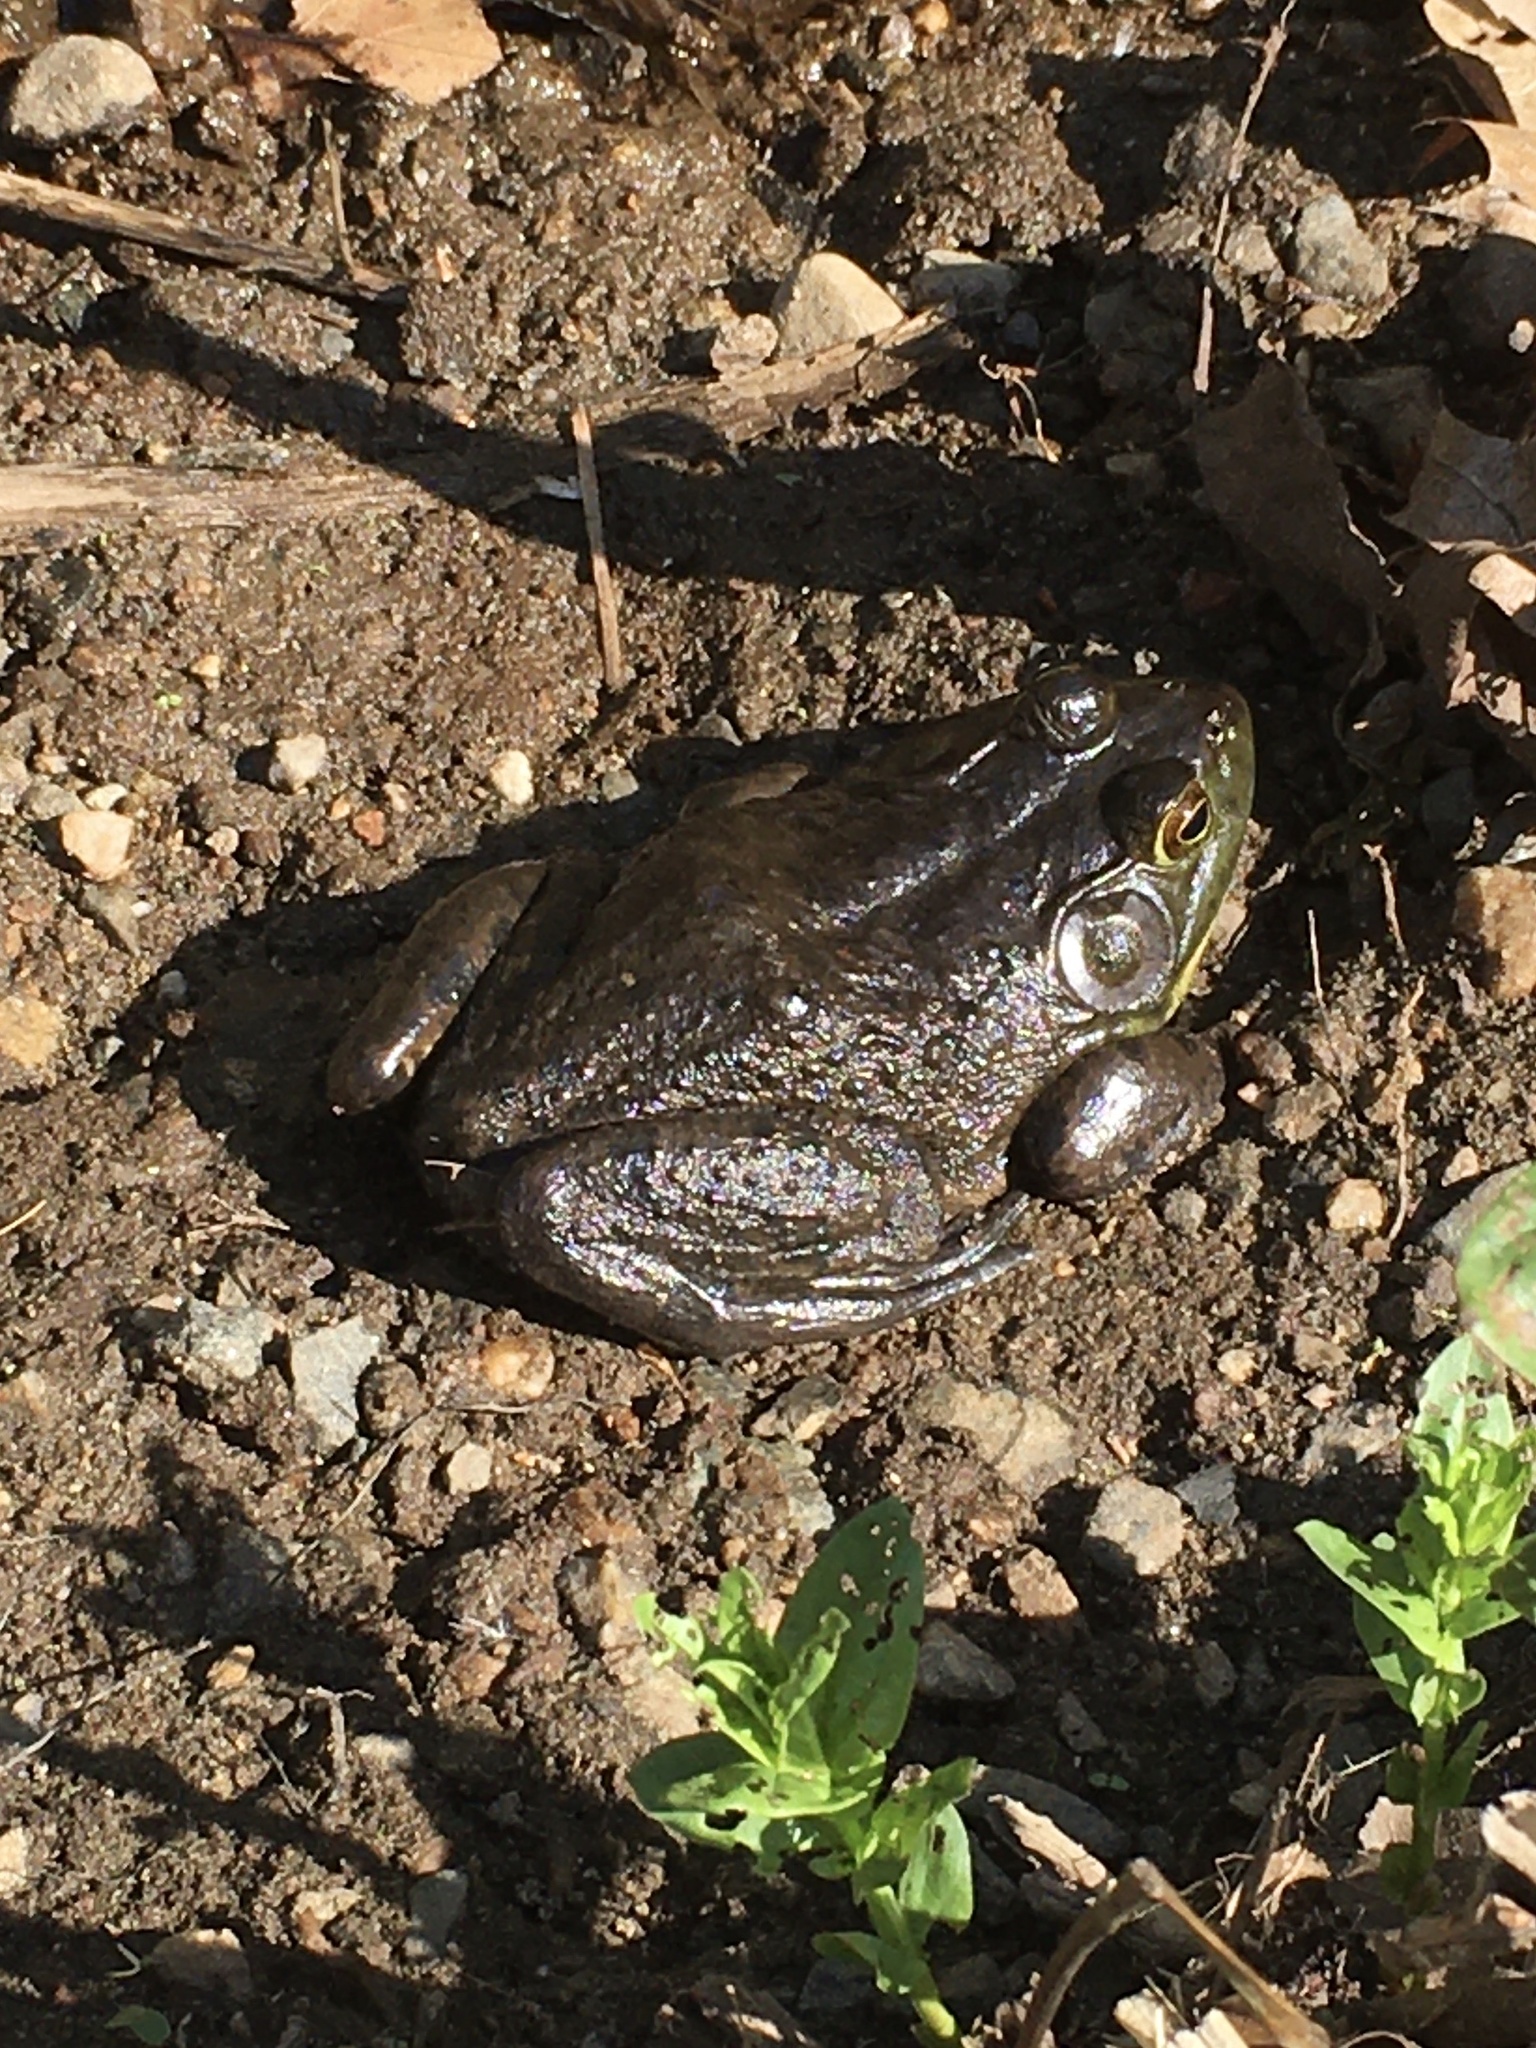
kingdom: Animalia
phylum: Chordata
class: Amphibia
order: Anura
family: Ranidae
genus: Lithobates
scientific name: Lithobates catesbeianus
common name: American bullfrog
